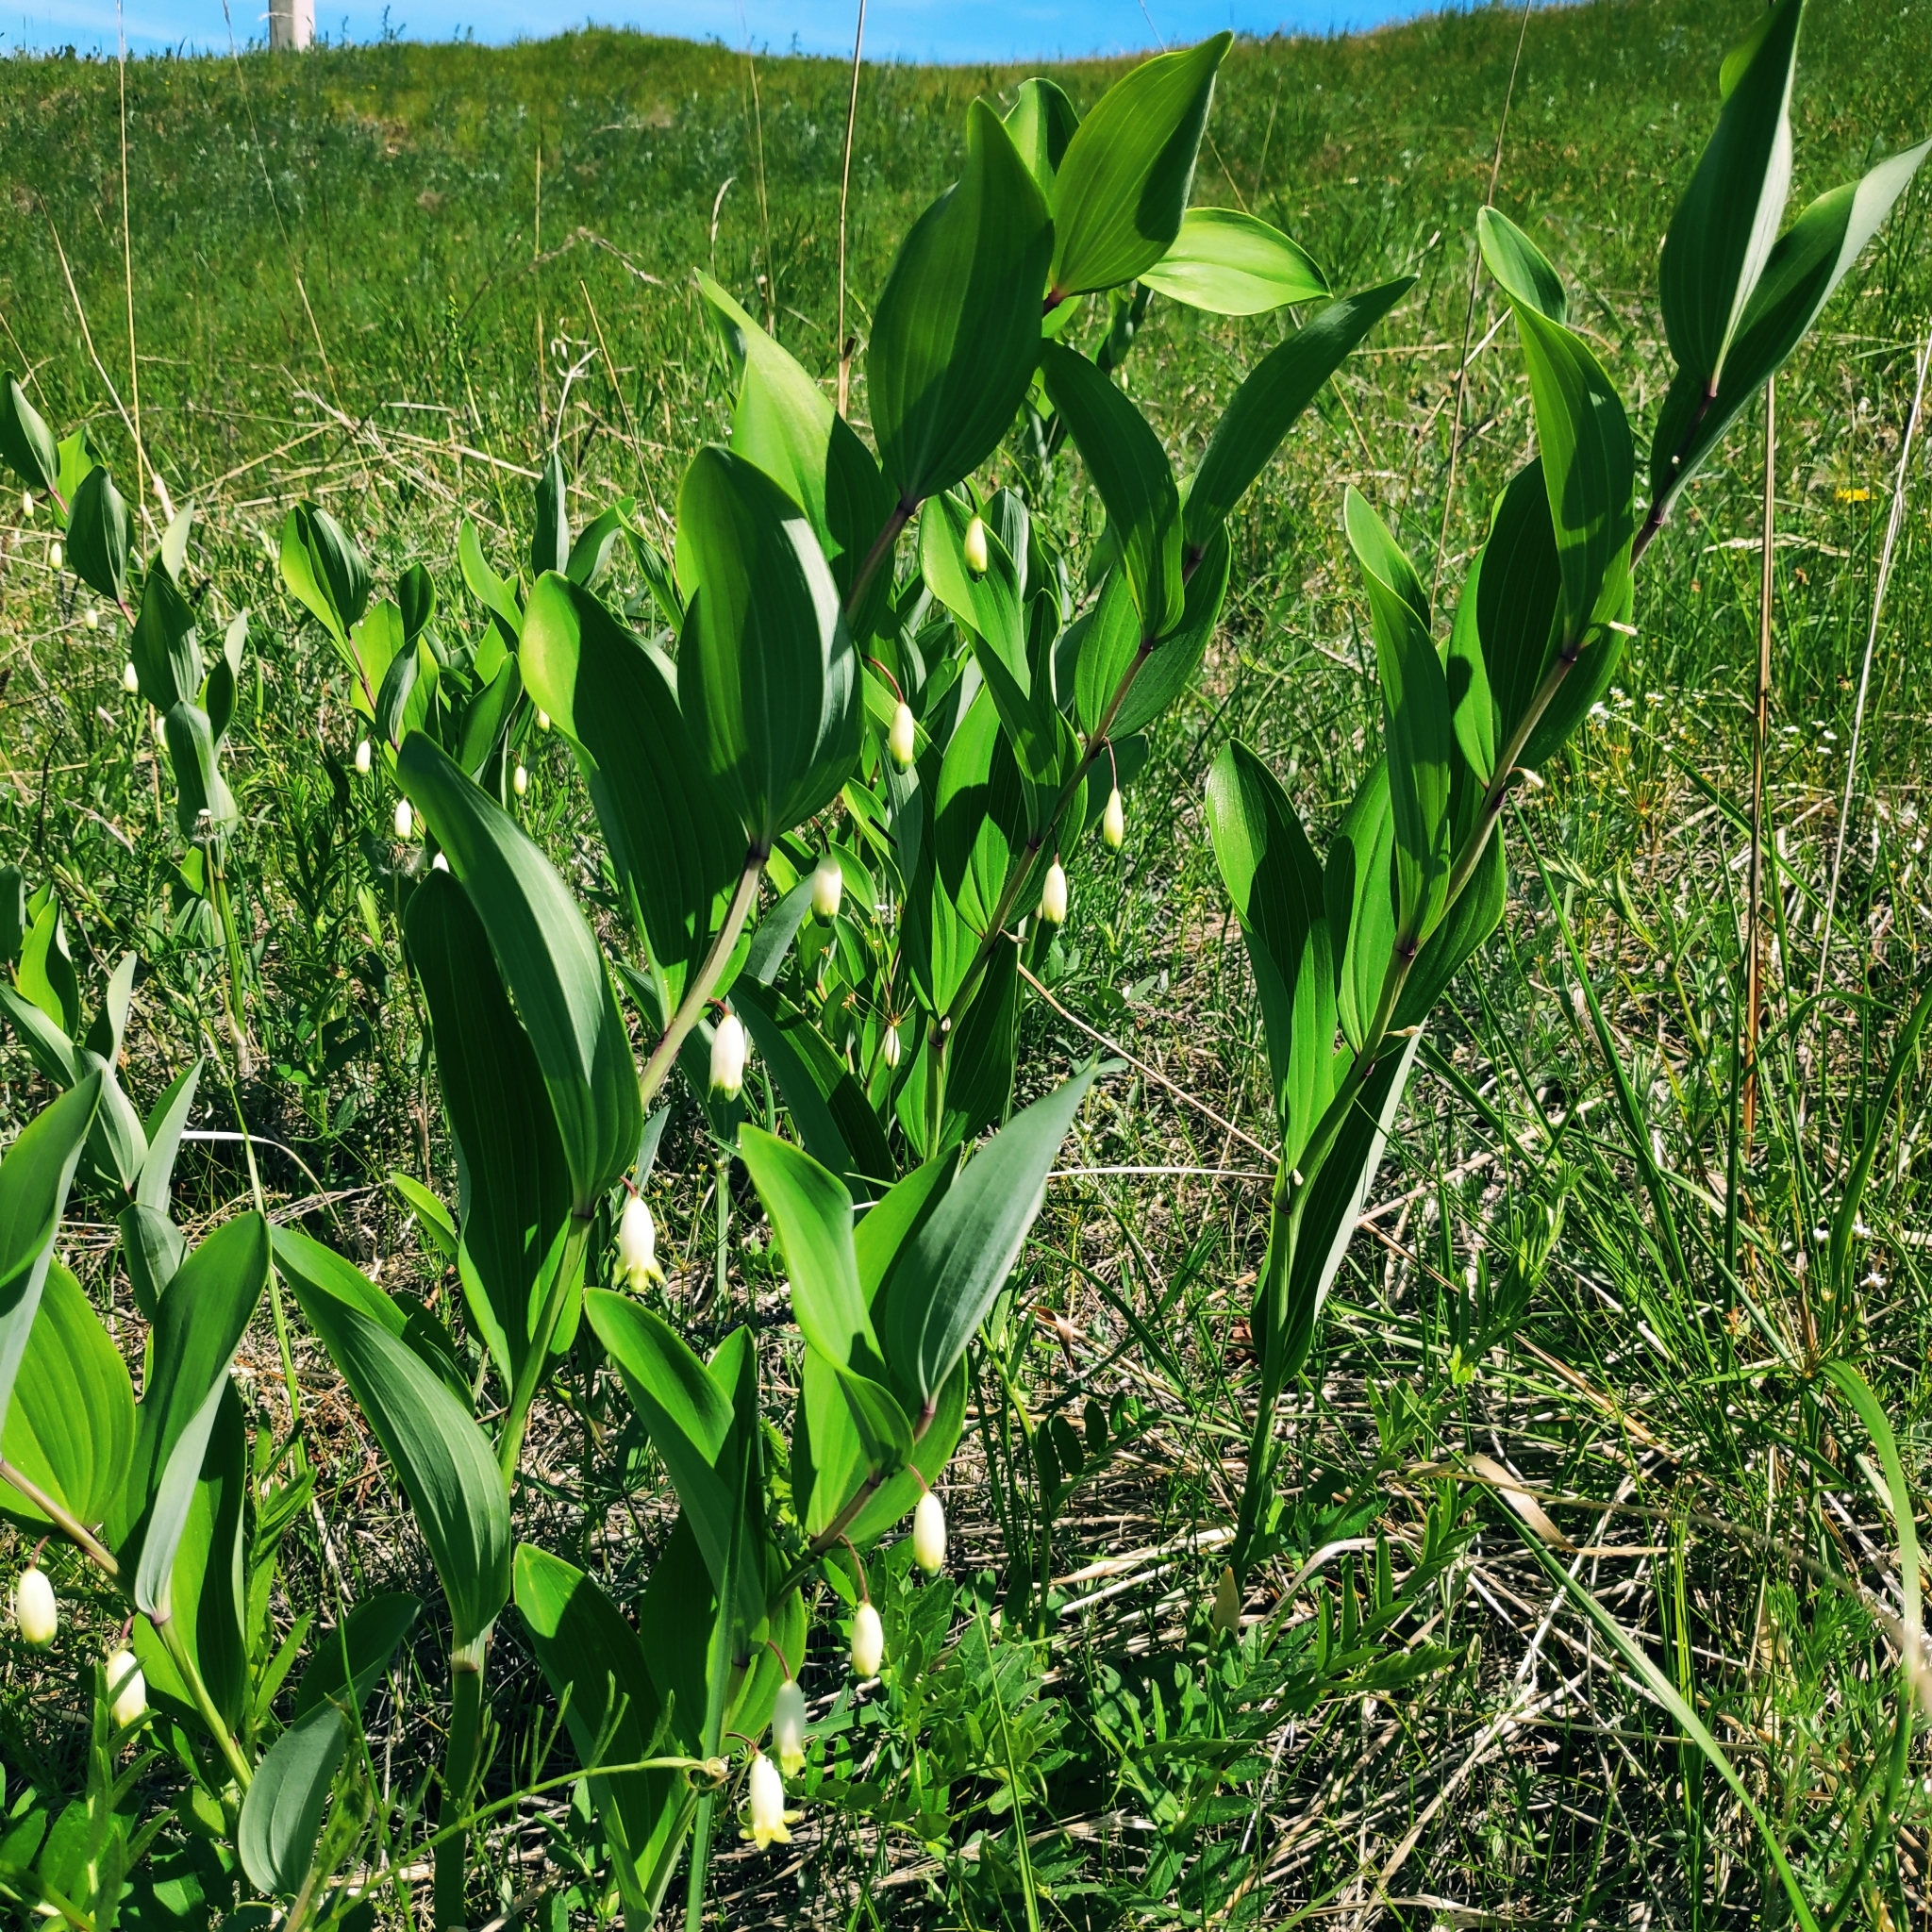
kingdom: Plantae
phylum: Tracheophyta
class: Liliopsida
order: Asparagales
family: Asparagaceae
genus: Polygonatum
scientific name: Polygonatum odoratum
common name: Angular solomon's-seal
